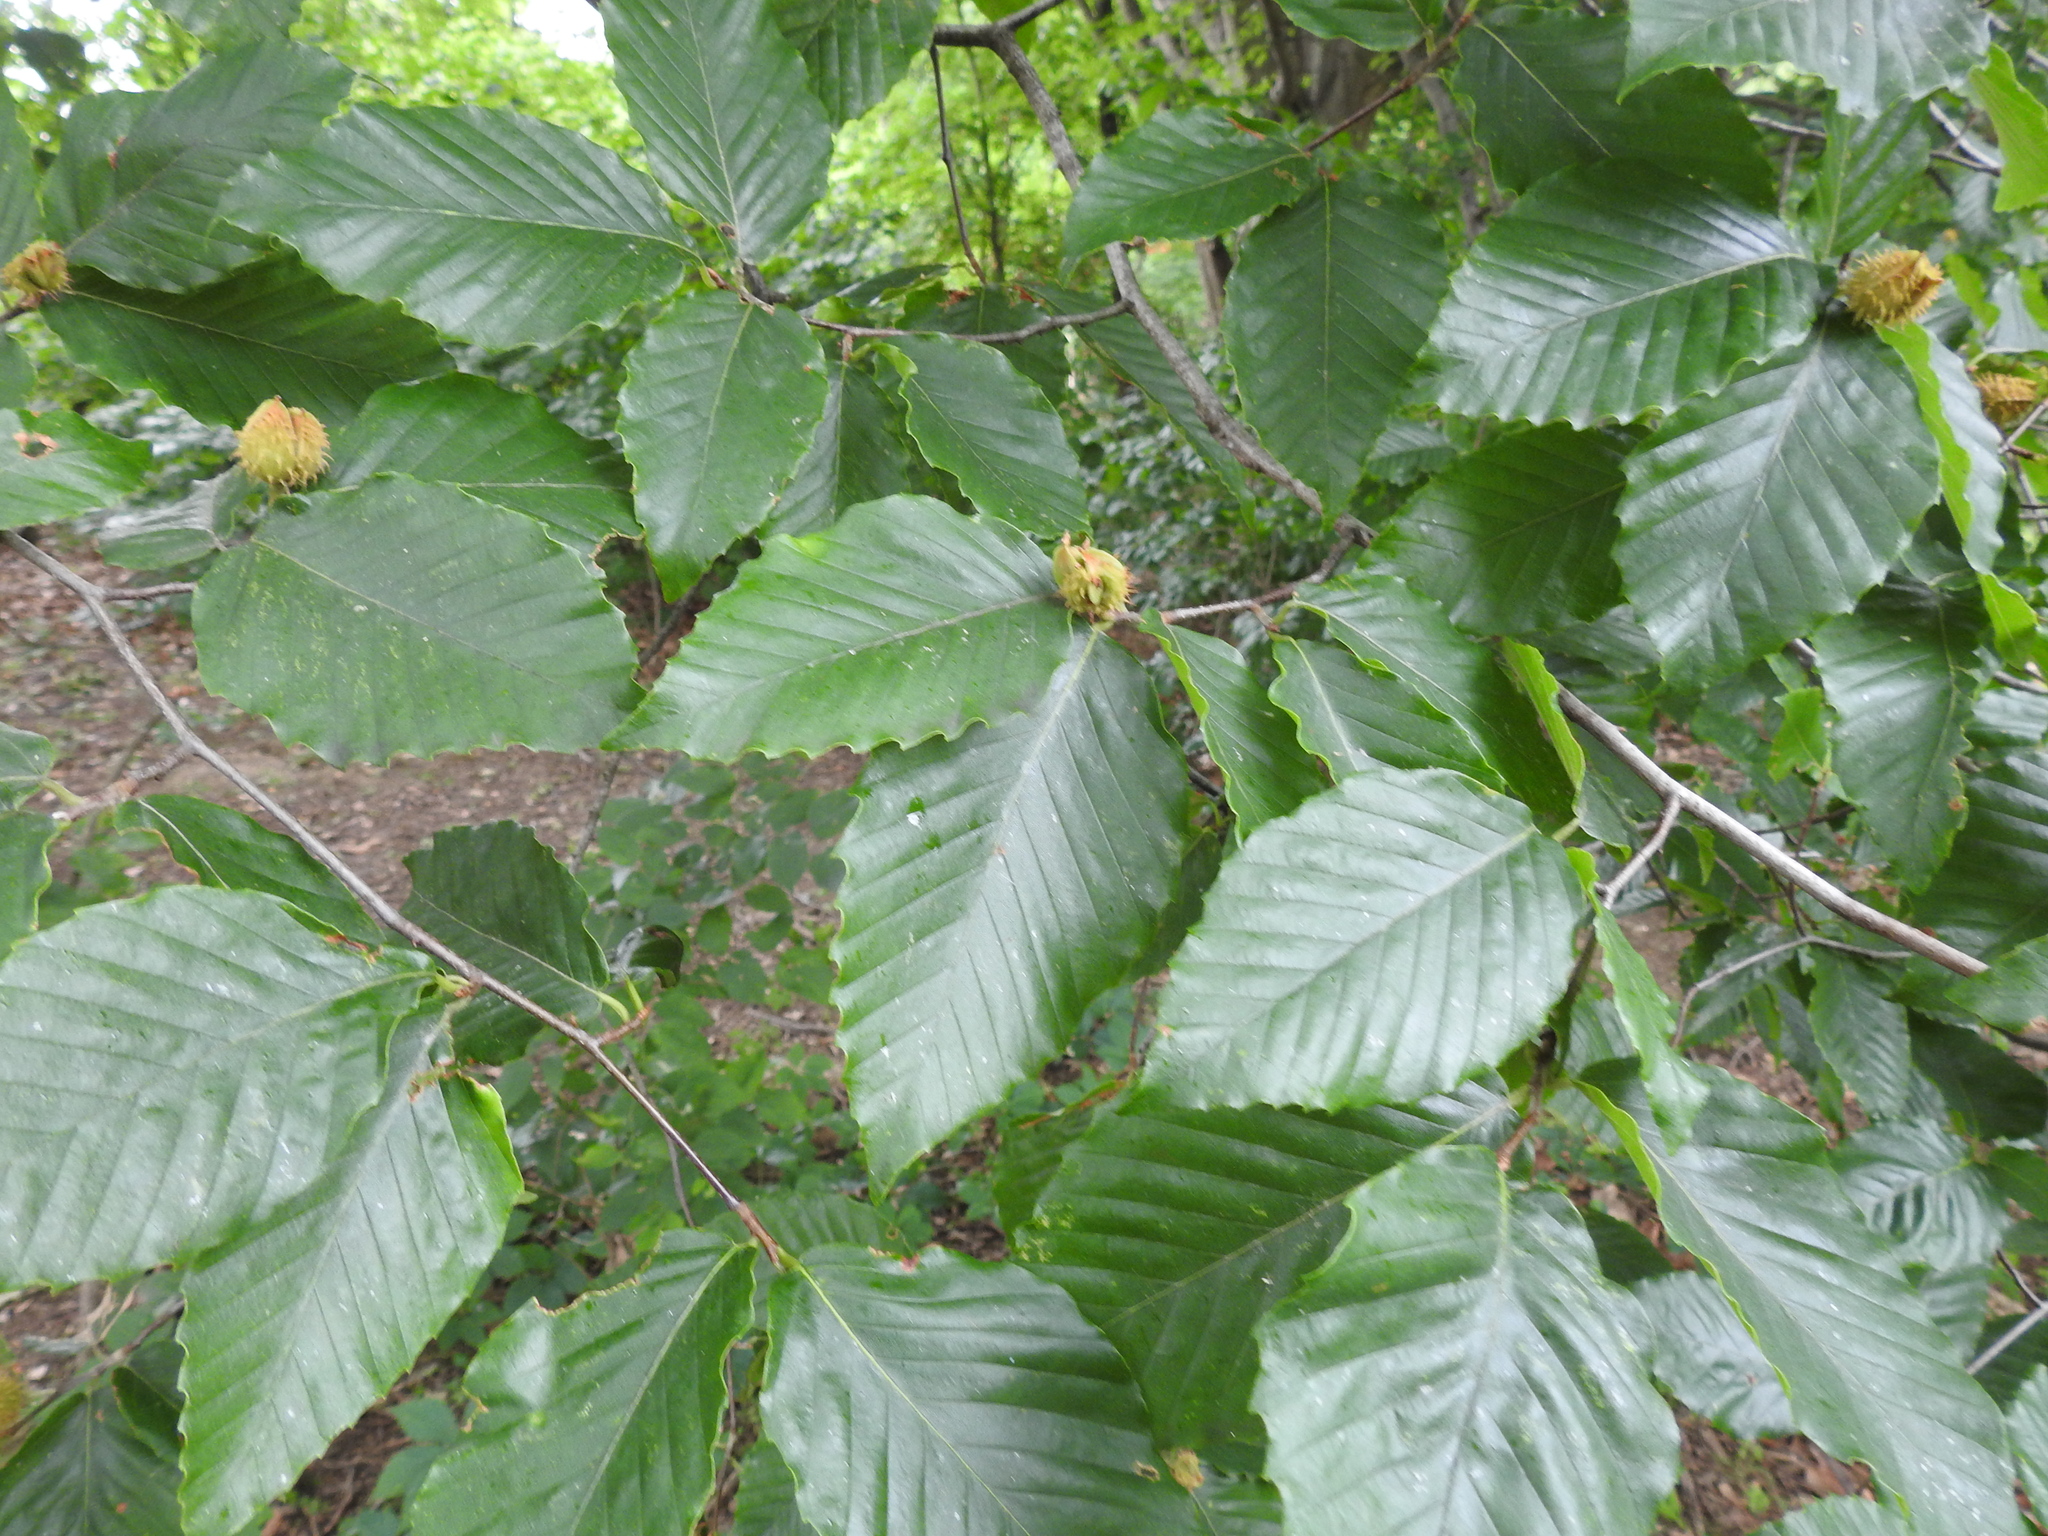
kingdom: Plantae
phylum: Tracheophyta
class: Magnoliopsida
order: Fagales
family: Fagaceae
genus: Fagus
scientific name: Fagus grandifolia
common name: American beech
